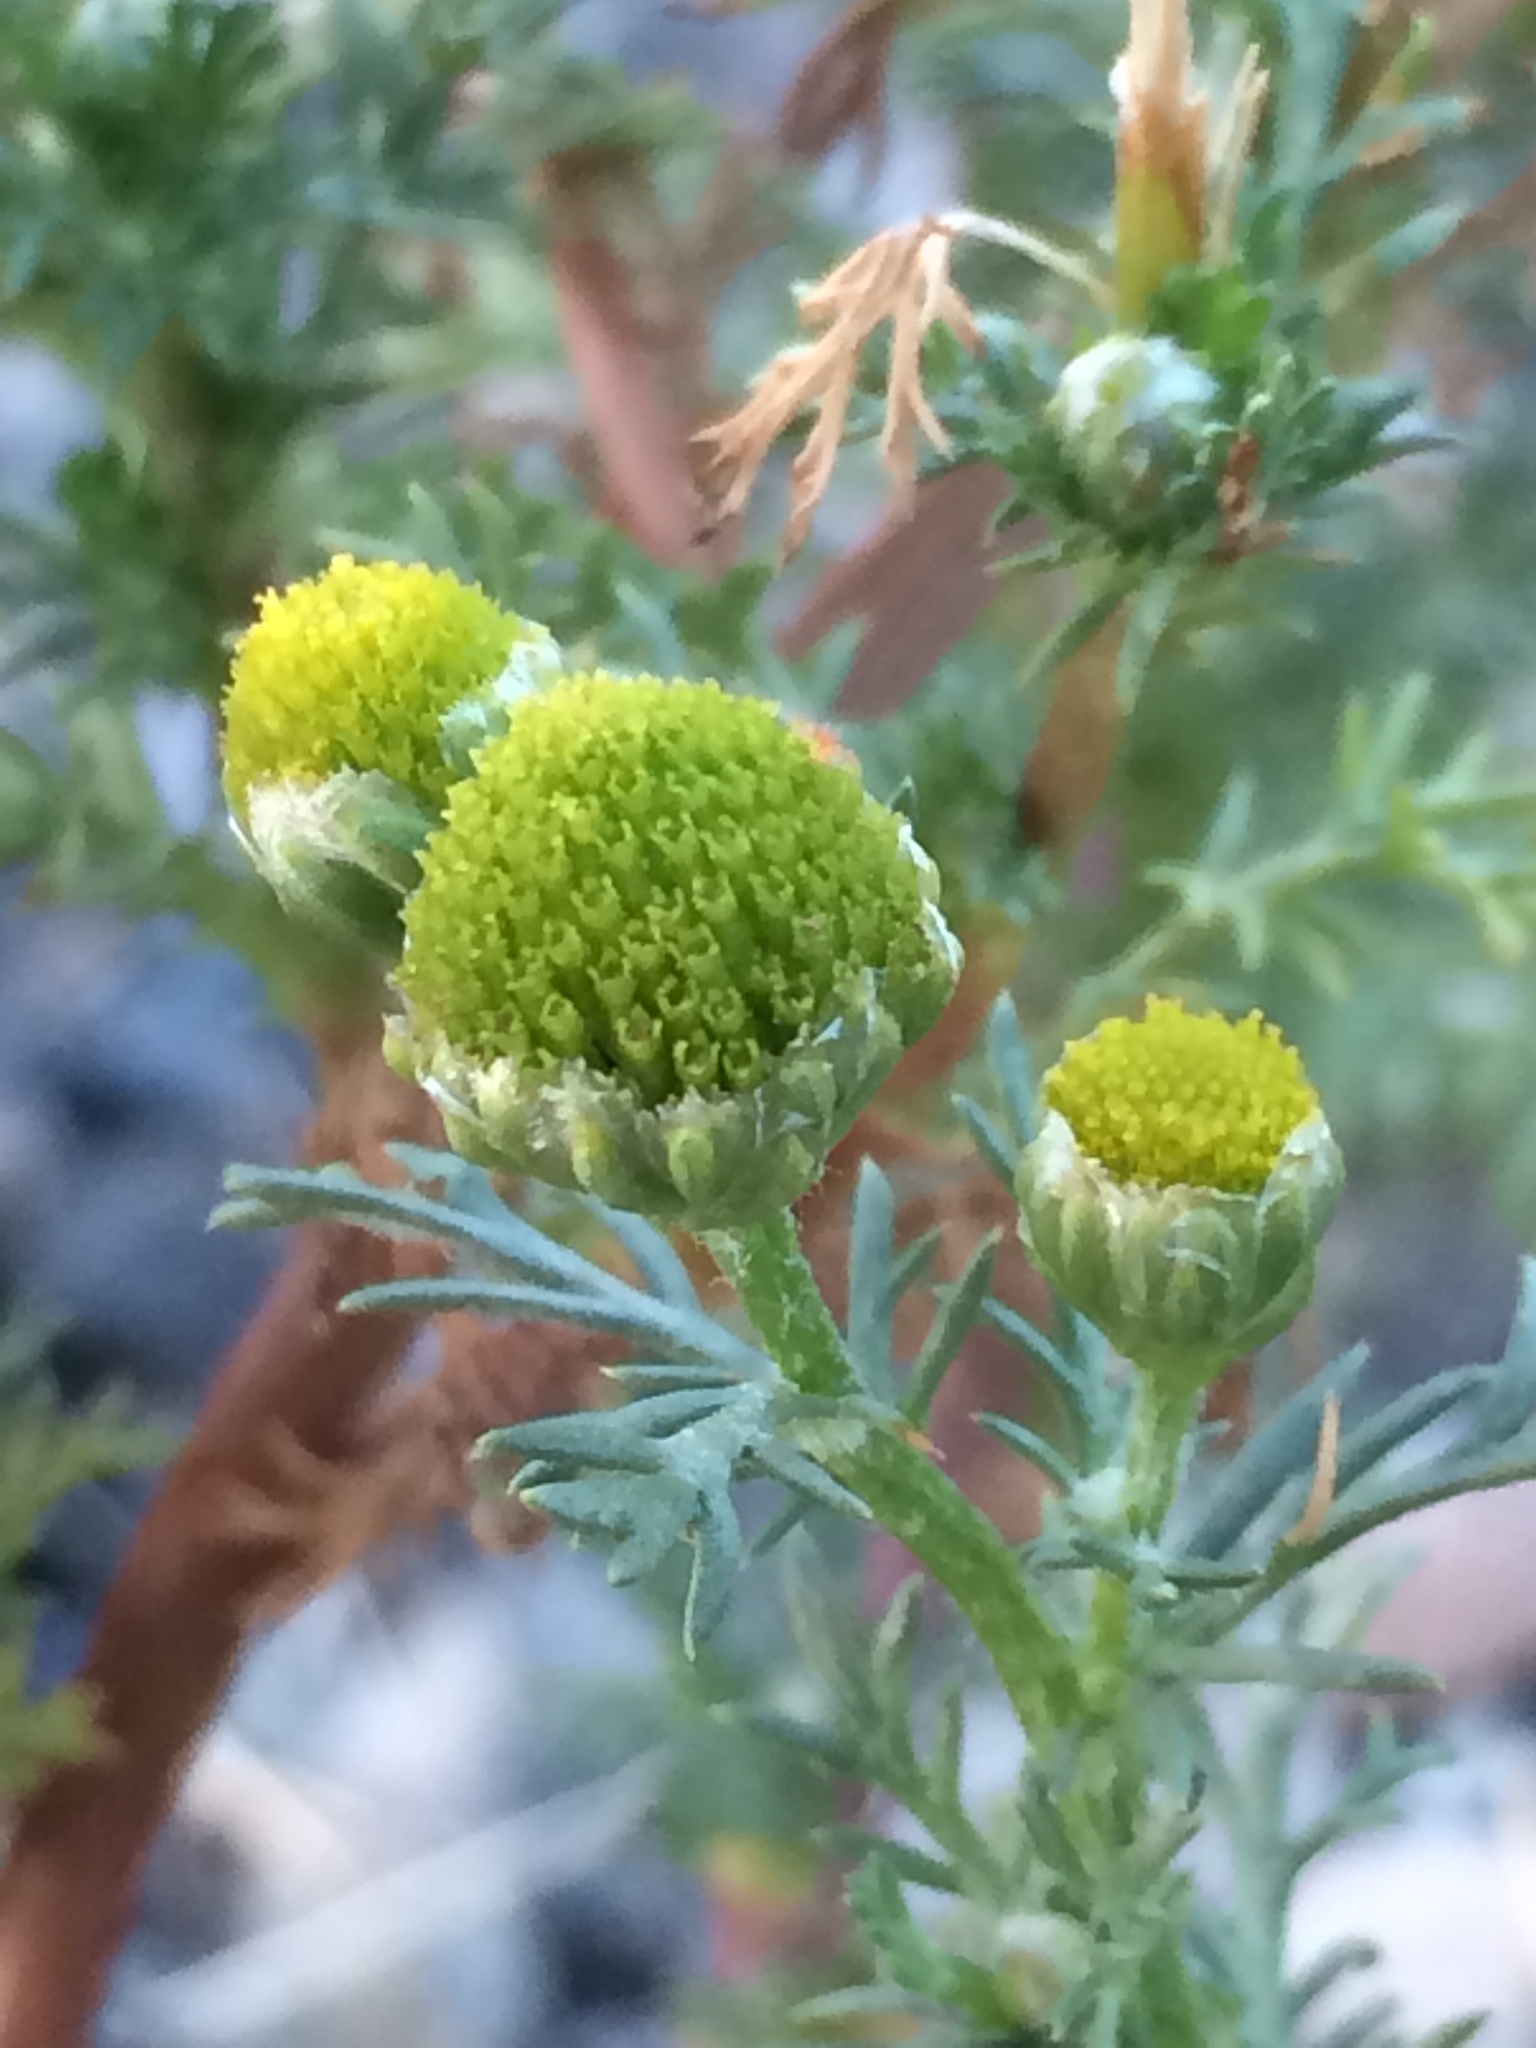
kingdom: Plantae
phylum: Tracheophyta
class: Magnoliopsida
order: Asterales
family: Asteraceae
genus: Matricaria
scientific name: Matricaria discoidea
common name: Disc mayweed
